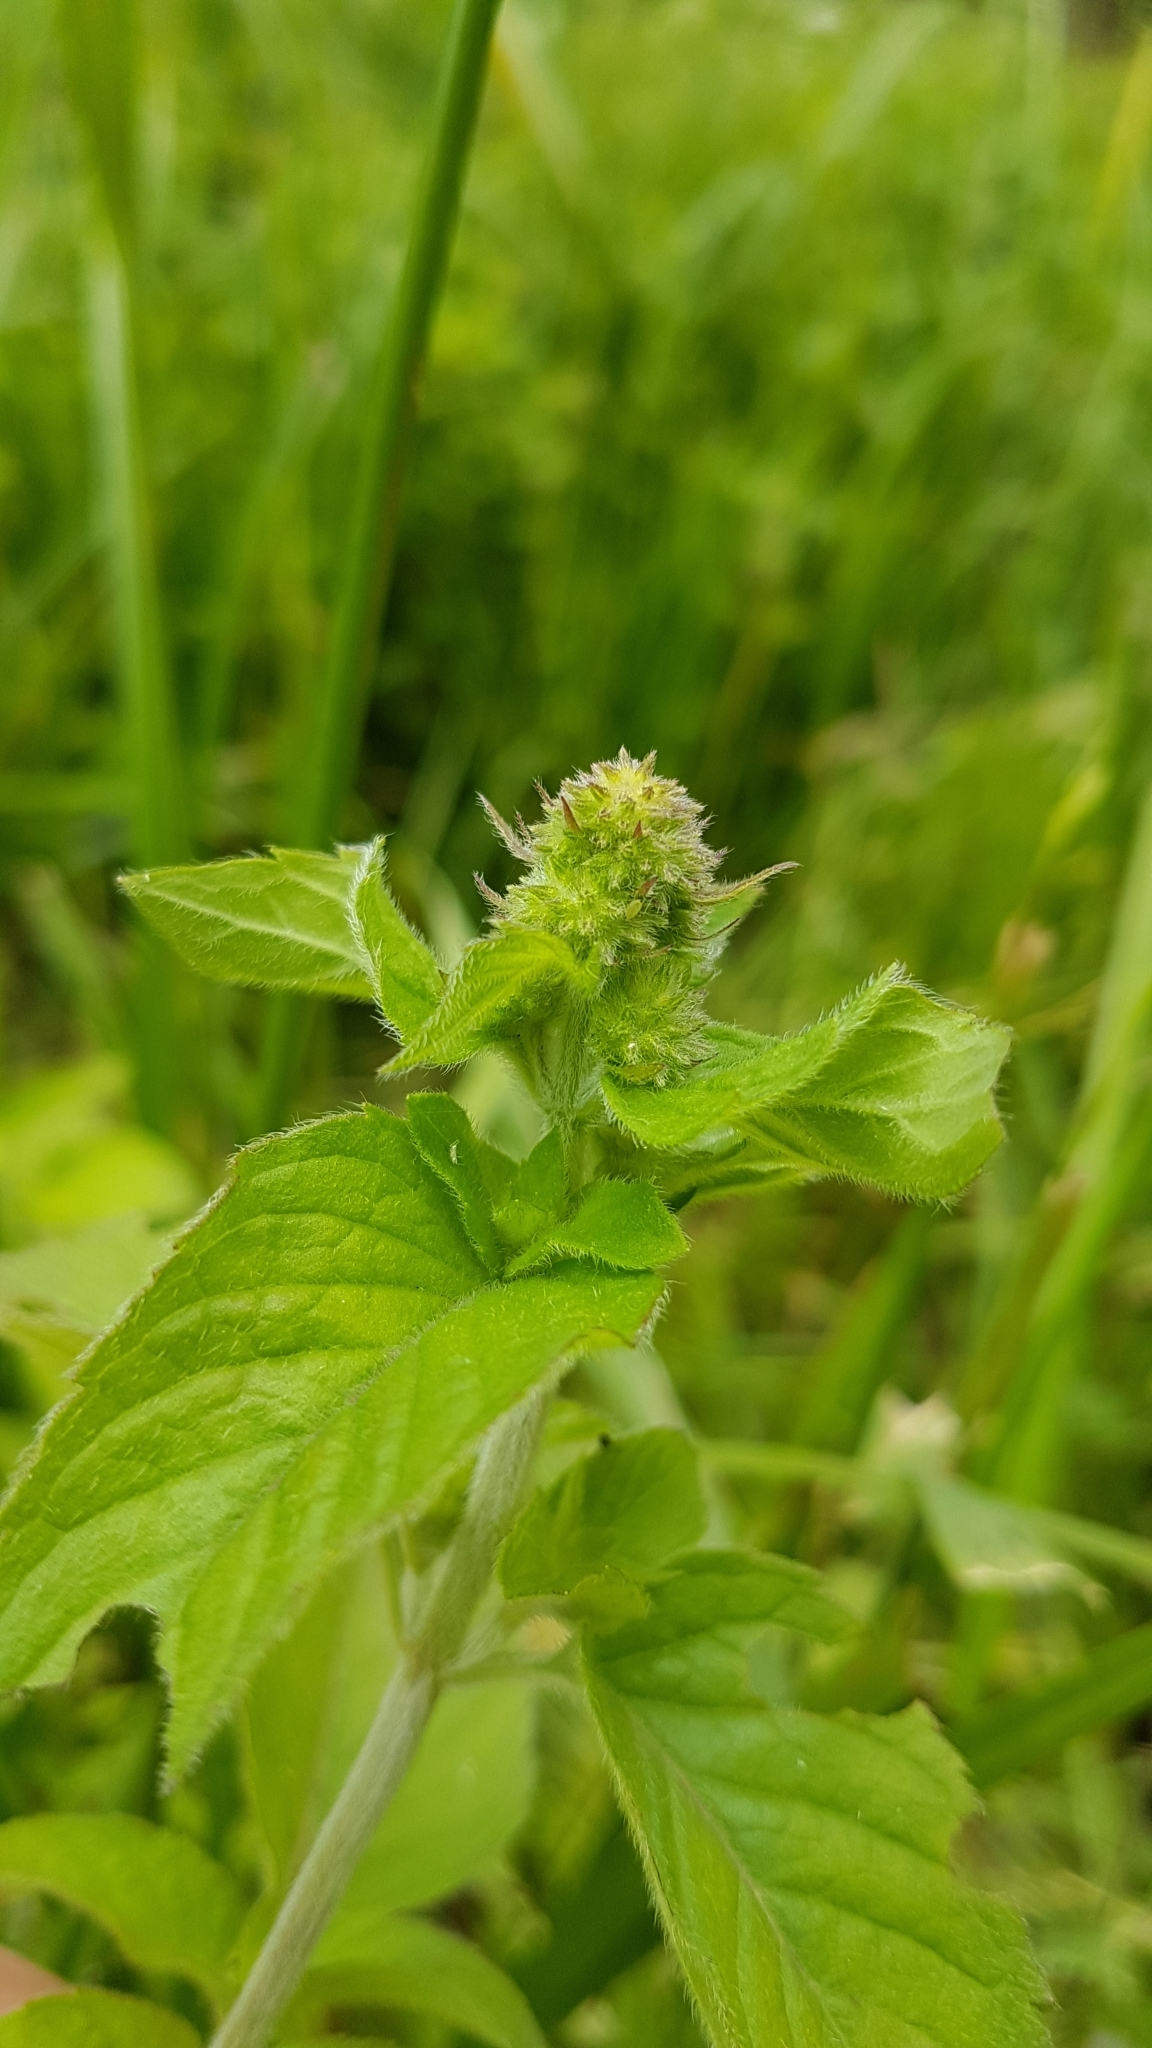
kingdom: Plantae
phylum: Tracheophyta
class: Magnoliopsida
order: Lamiales
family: Lamiaceae
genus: Mentha
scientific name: Mentha aquatica
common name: Water mint
